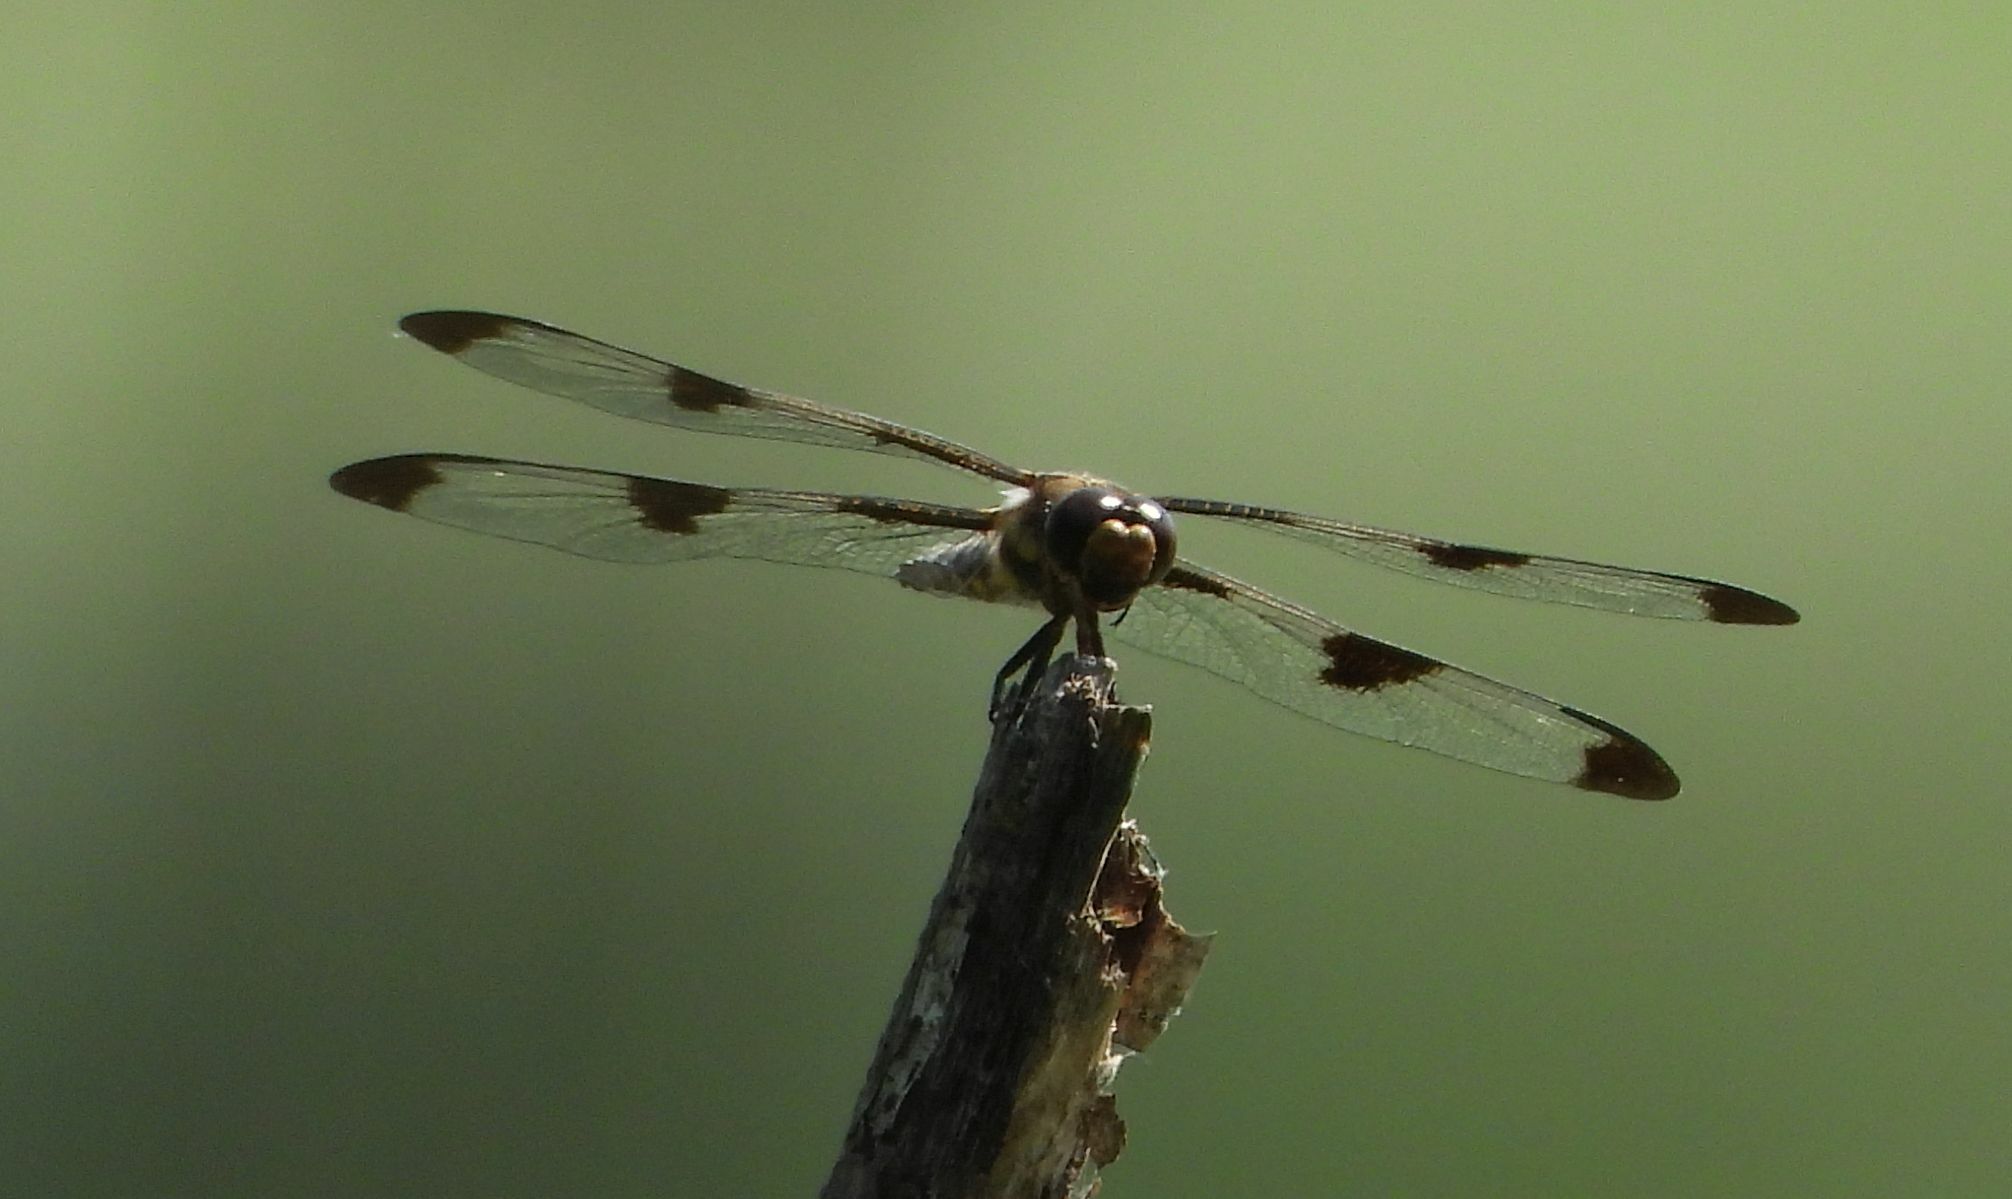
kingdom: Animalia
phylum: Arthropoda
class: Insecta
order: Odonata
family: Libellulidae
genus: Libellula
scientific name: Libellula pulchella
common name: Twelve-spotted skimmer
